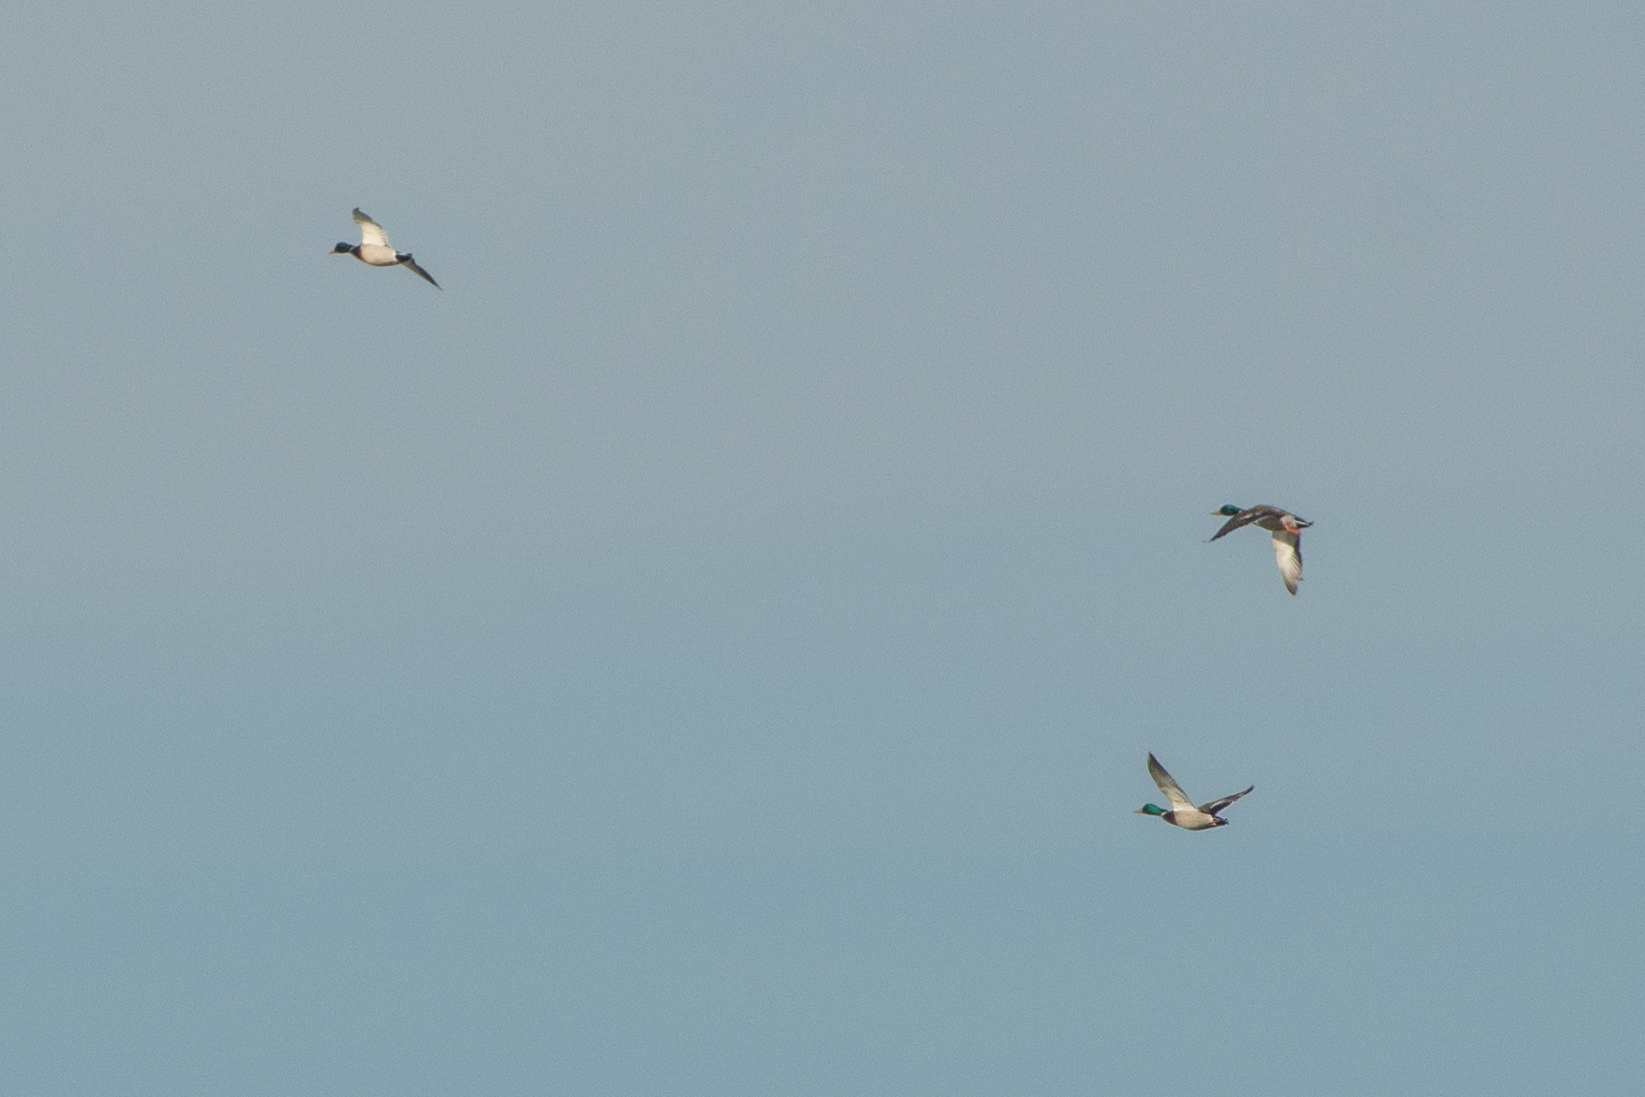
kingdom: Animalia
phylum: Chordata
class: Aves
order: Anseriformes
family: Anatidae
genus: Anas
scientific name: Anas platyrhynchos
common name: Mallard
